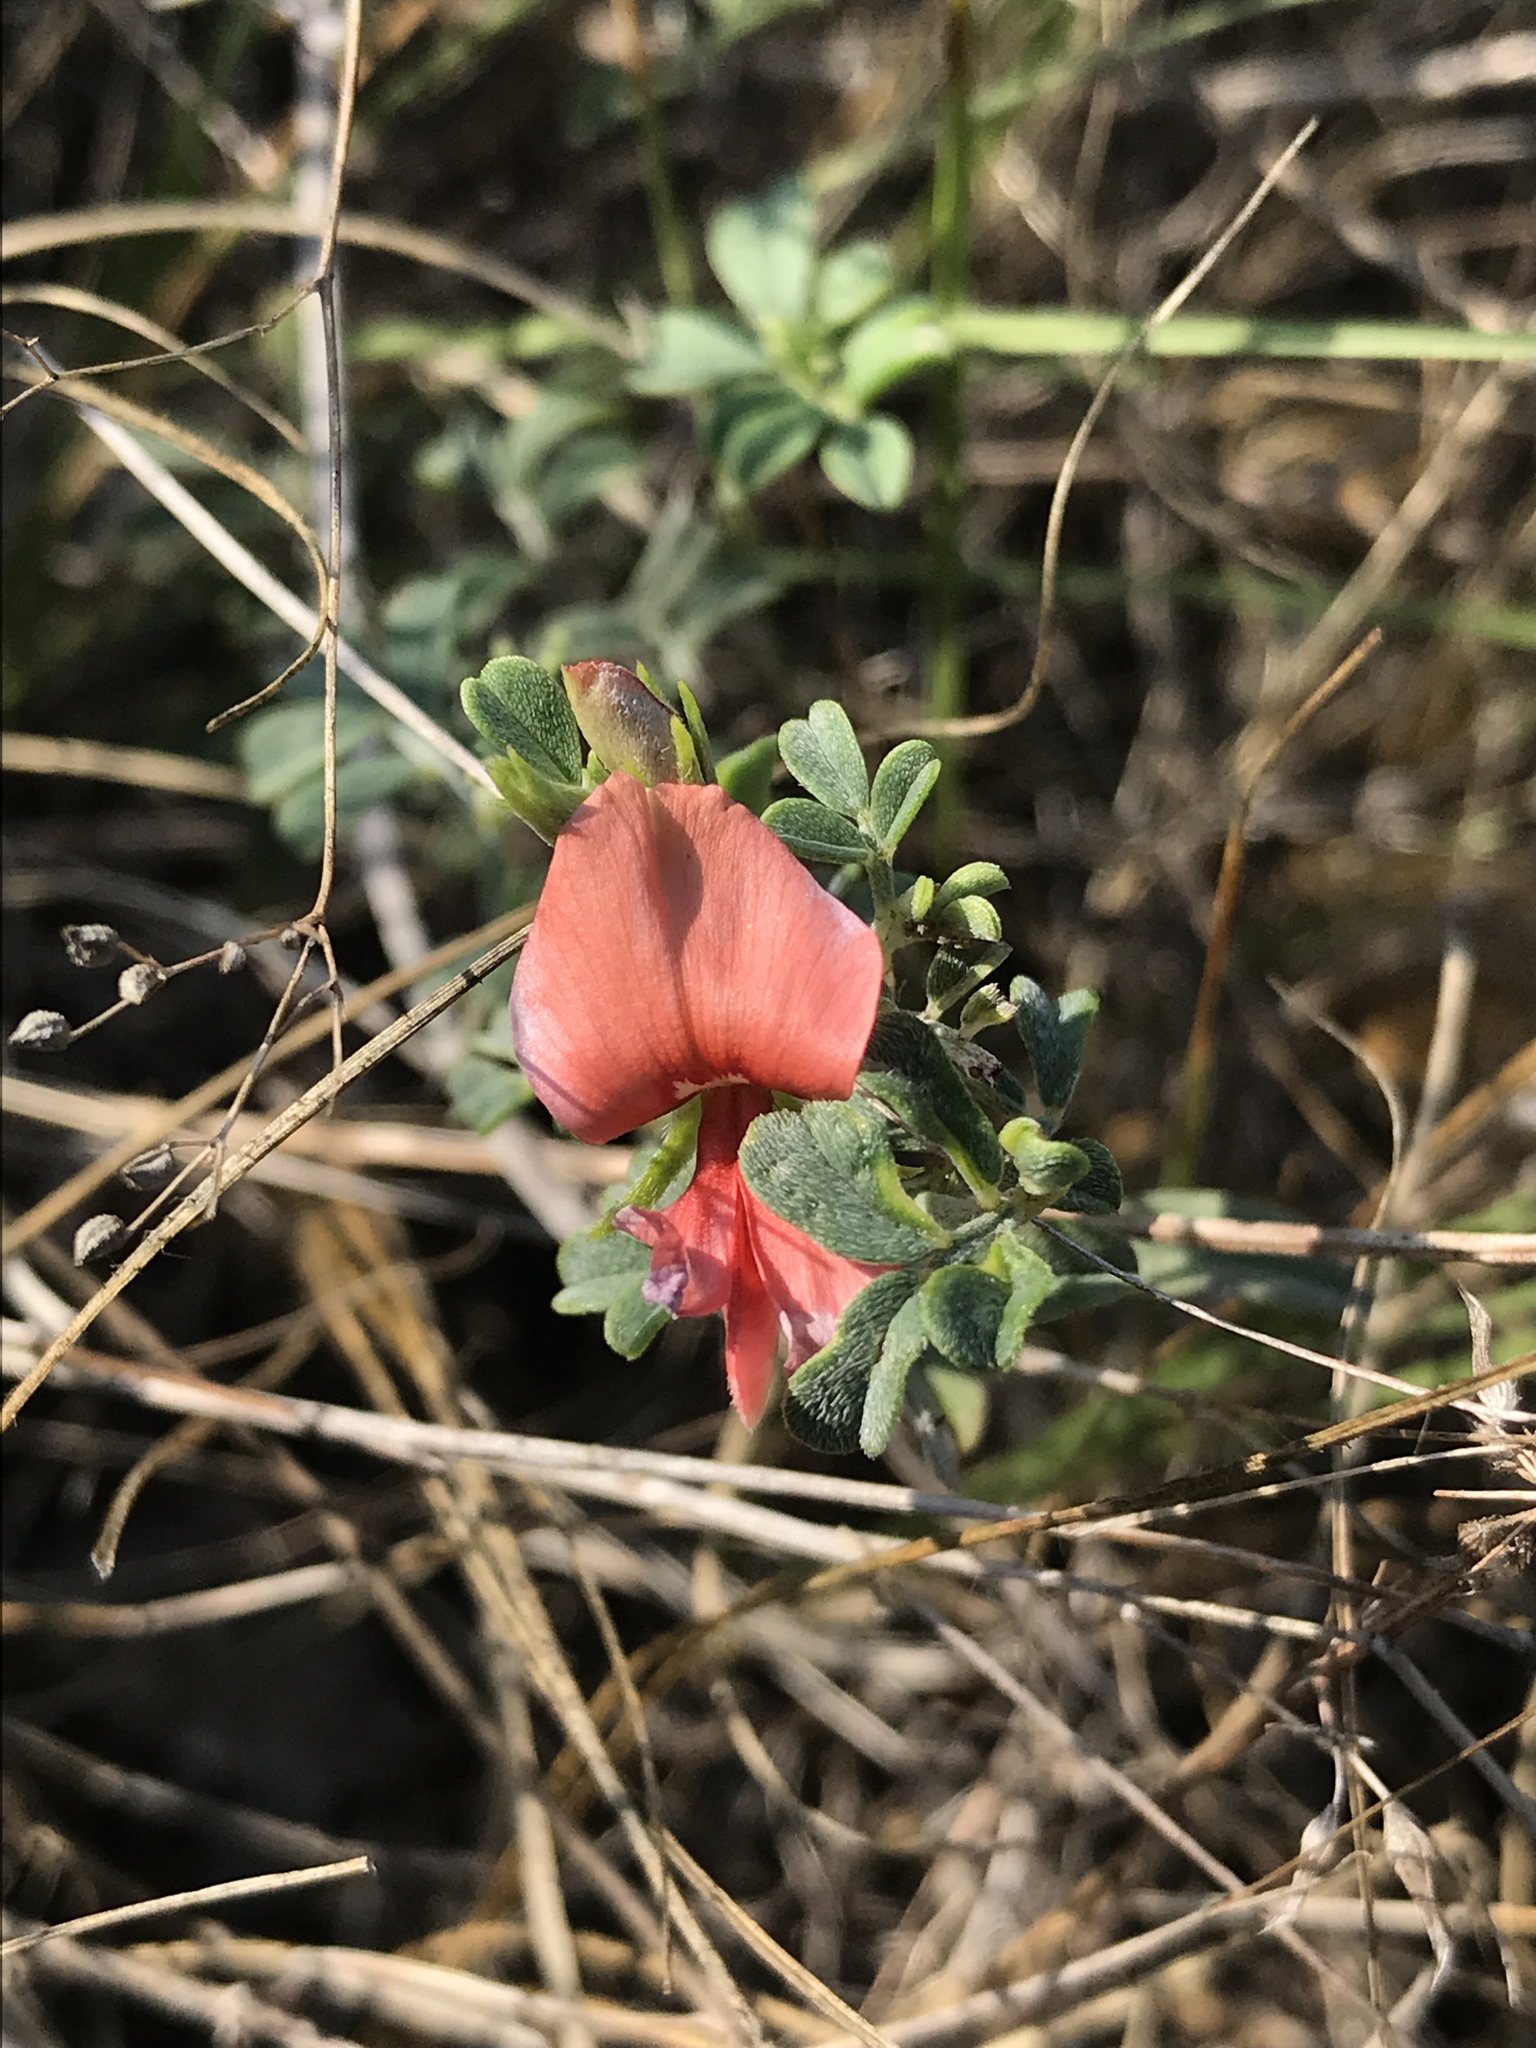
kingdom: Plantae
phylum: Tracheophyta
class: Magnoliopsida
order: Fabales
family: Fabaceae
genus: Indigofera
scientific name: Indigofera miniata
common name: Coast indigo
